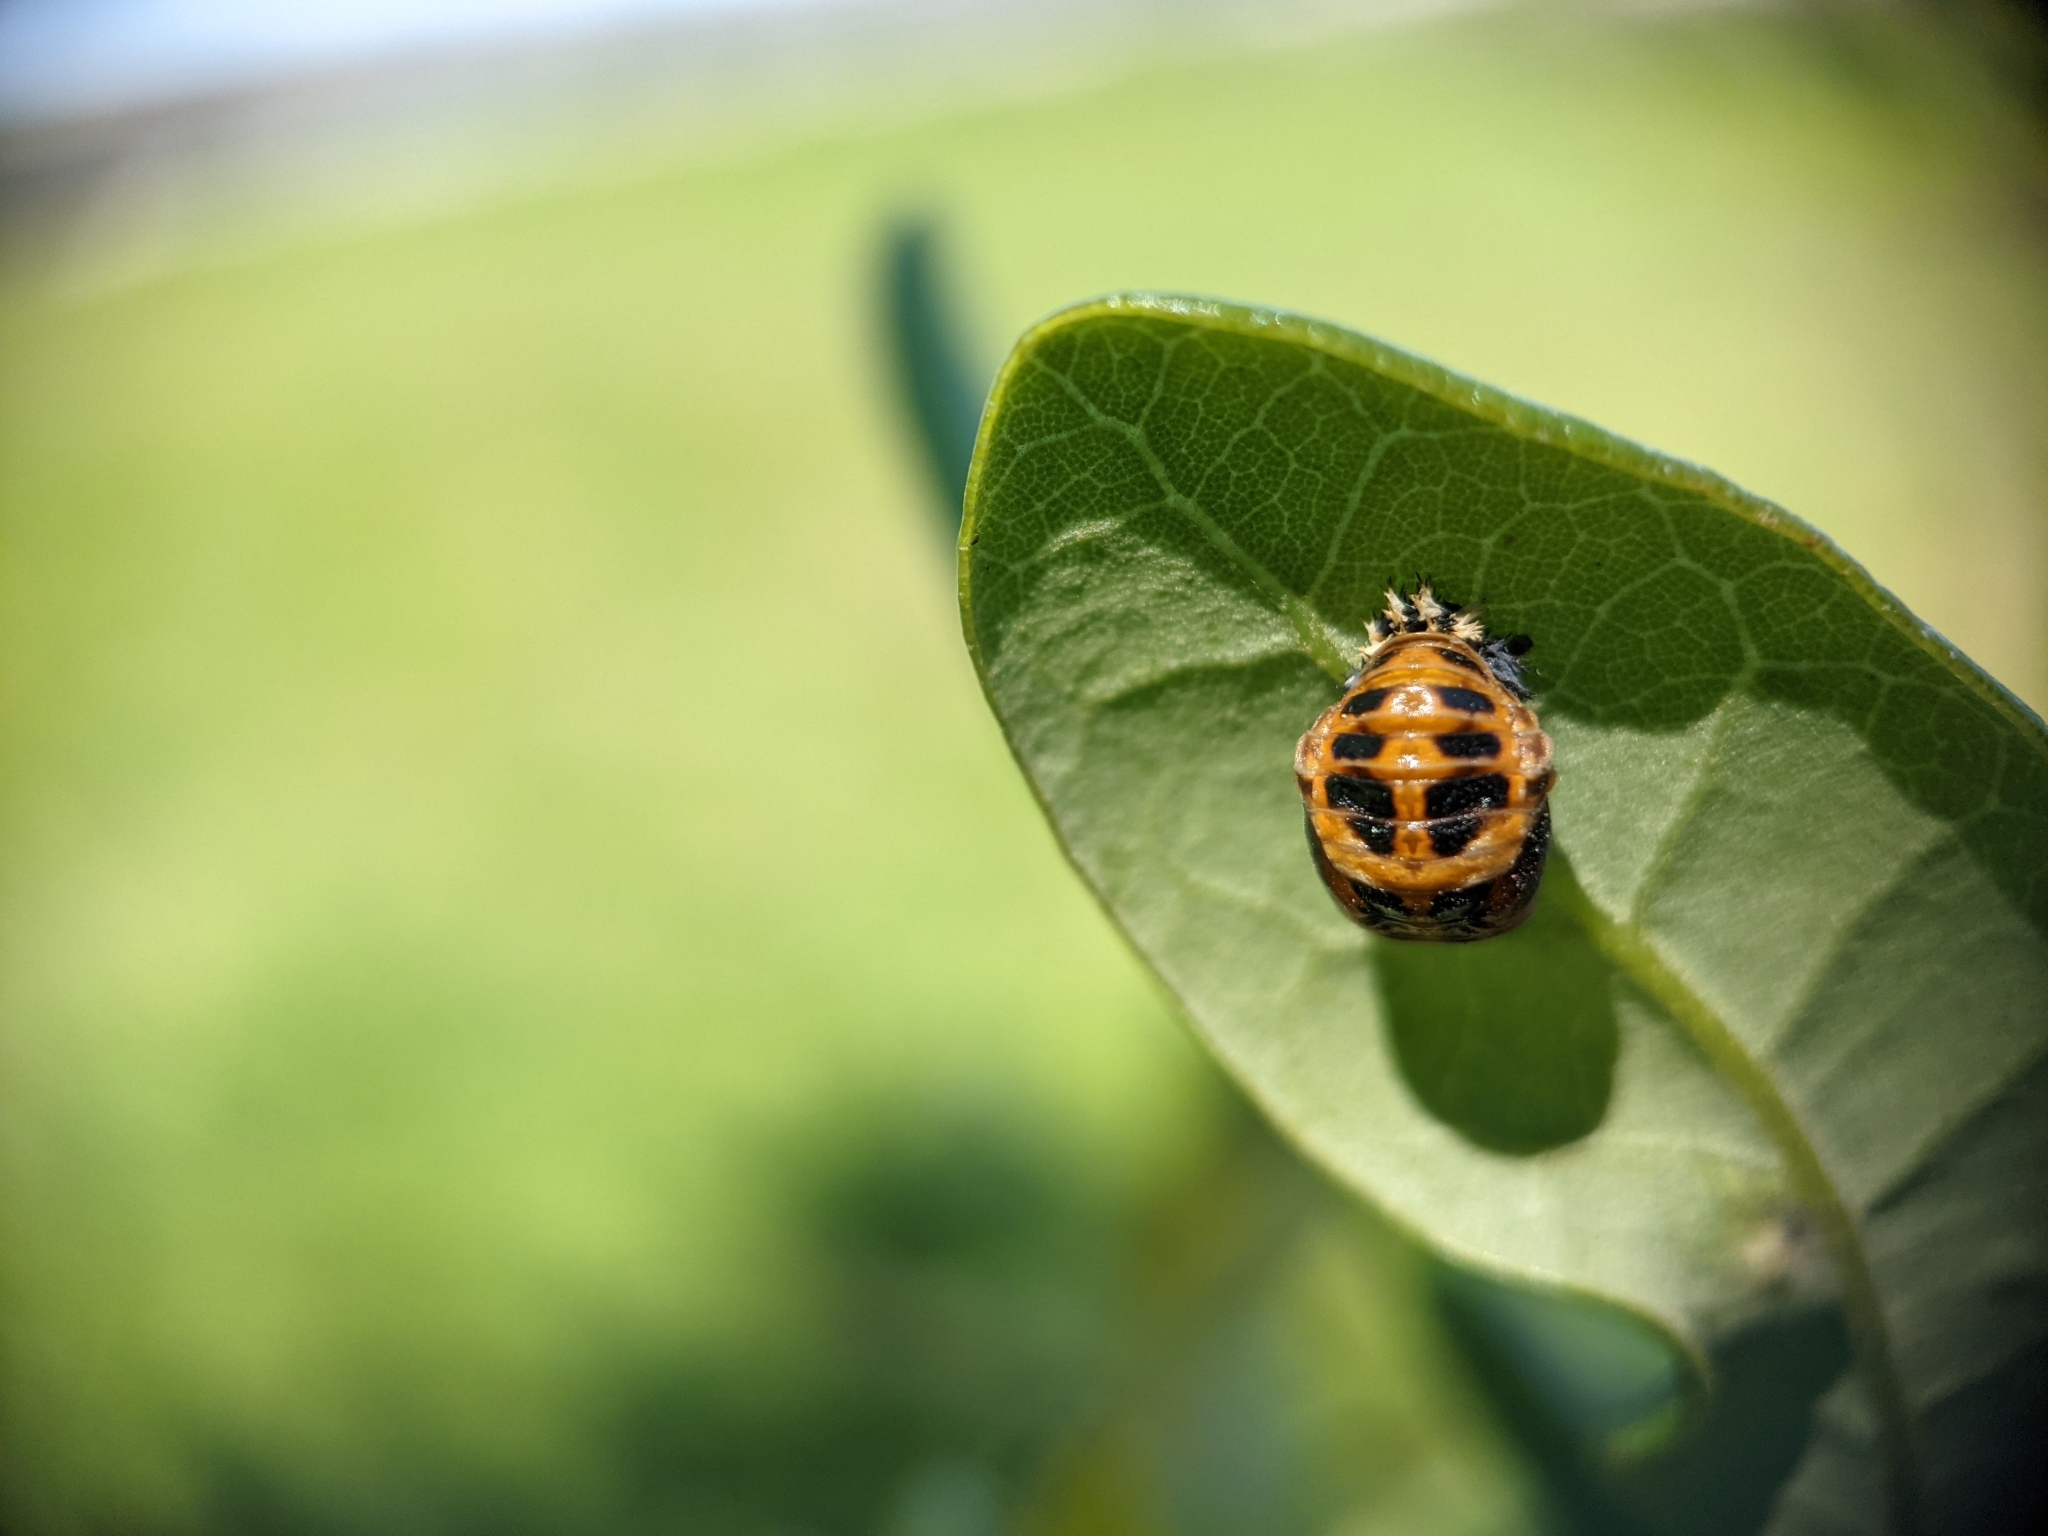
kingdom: Animalia
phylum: Arthropoda
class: Insecta
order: Coleoptera
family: Coccinellidae
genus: Harmonia
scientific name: Harmonia axyridis
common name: Harlequin ladybird
